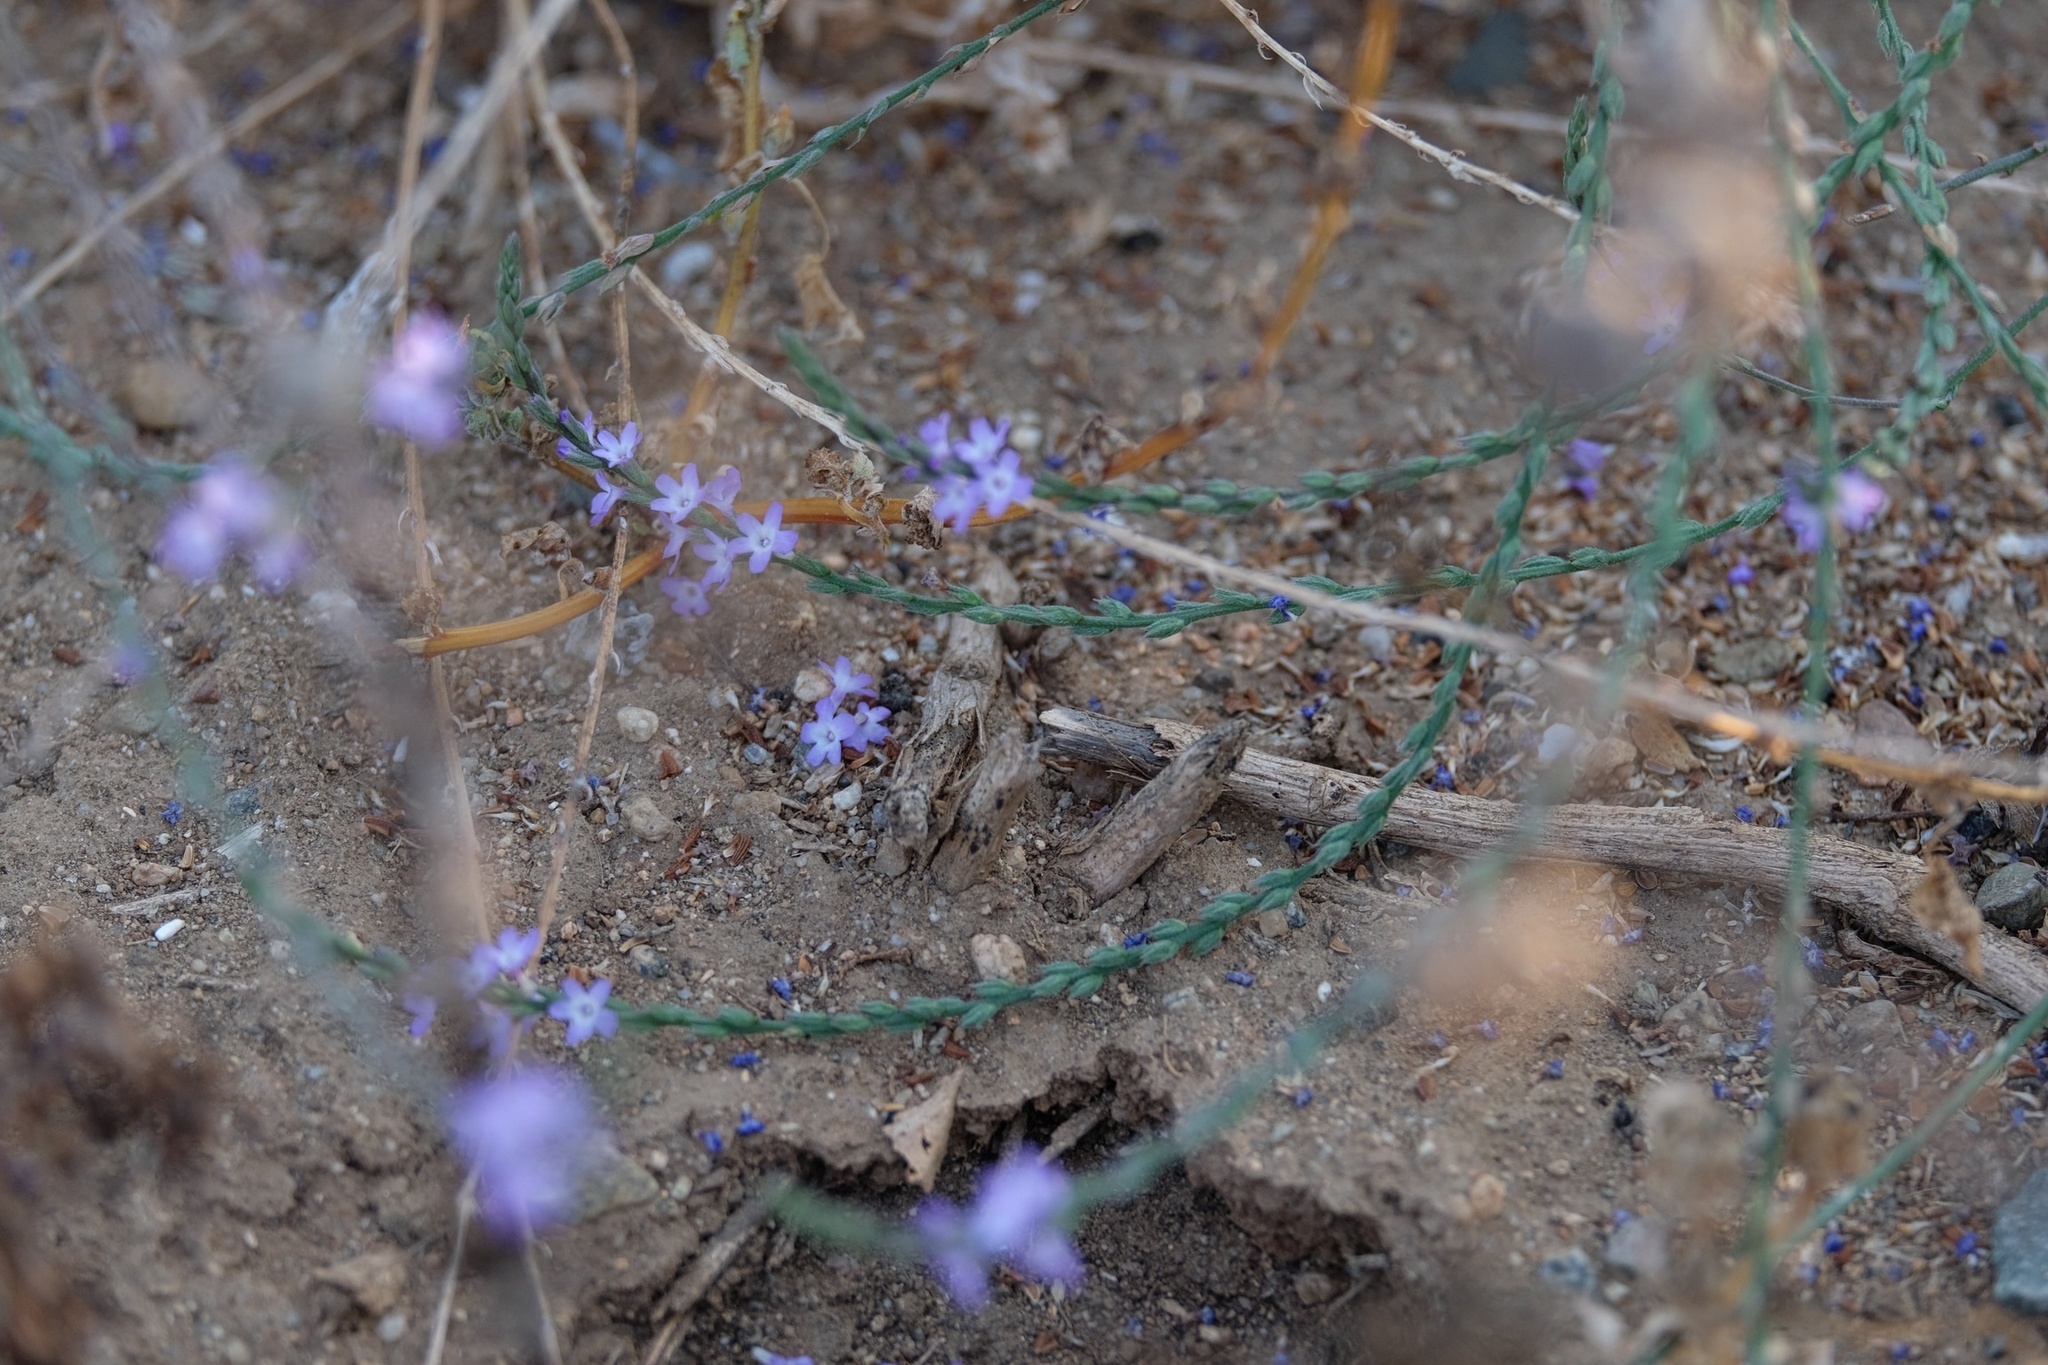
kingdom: Plantae
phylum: Tracheophyta
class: Magnoliopsida
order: Lamiales
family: Verbenaceae
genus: Verbena
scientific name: Verbena menthifolia
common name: Mint-leaf vervain
